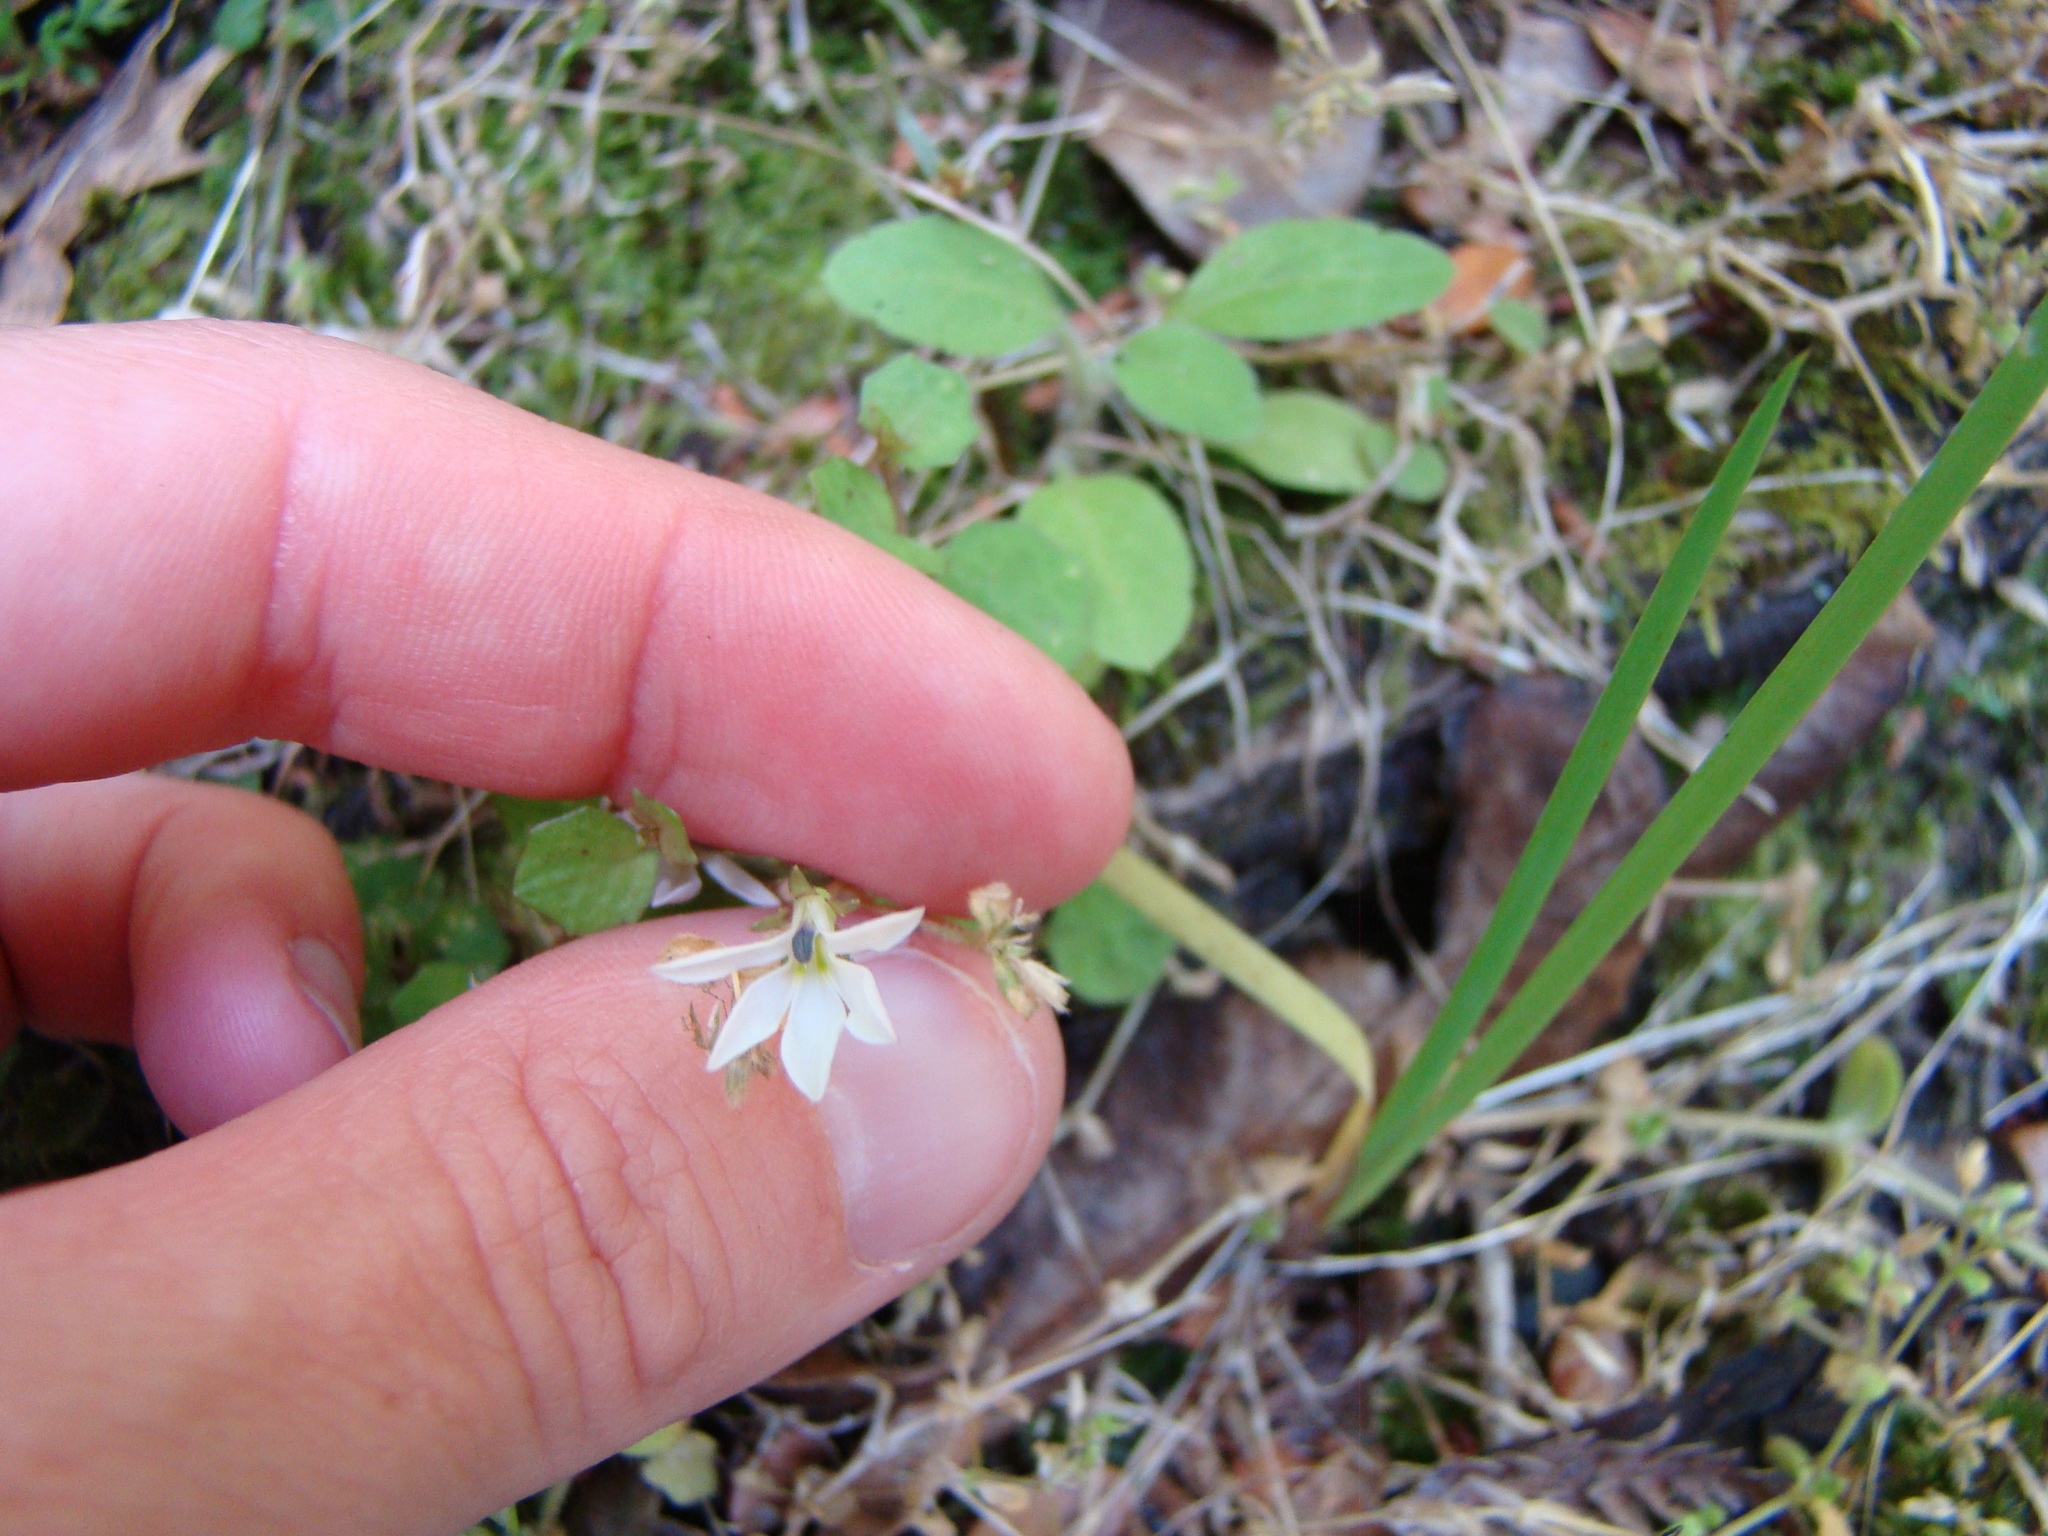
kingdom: Plantae
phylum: Tracheophyta
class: Magnoliopsida
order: Asterales
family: Campanulaceae
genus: Lobelia
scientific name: Lobelia angulata
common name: Lawn lobelia
